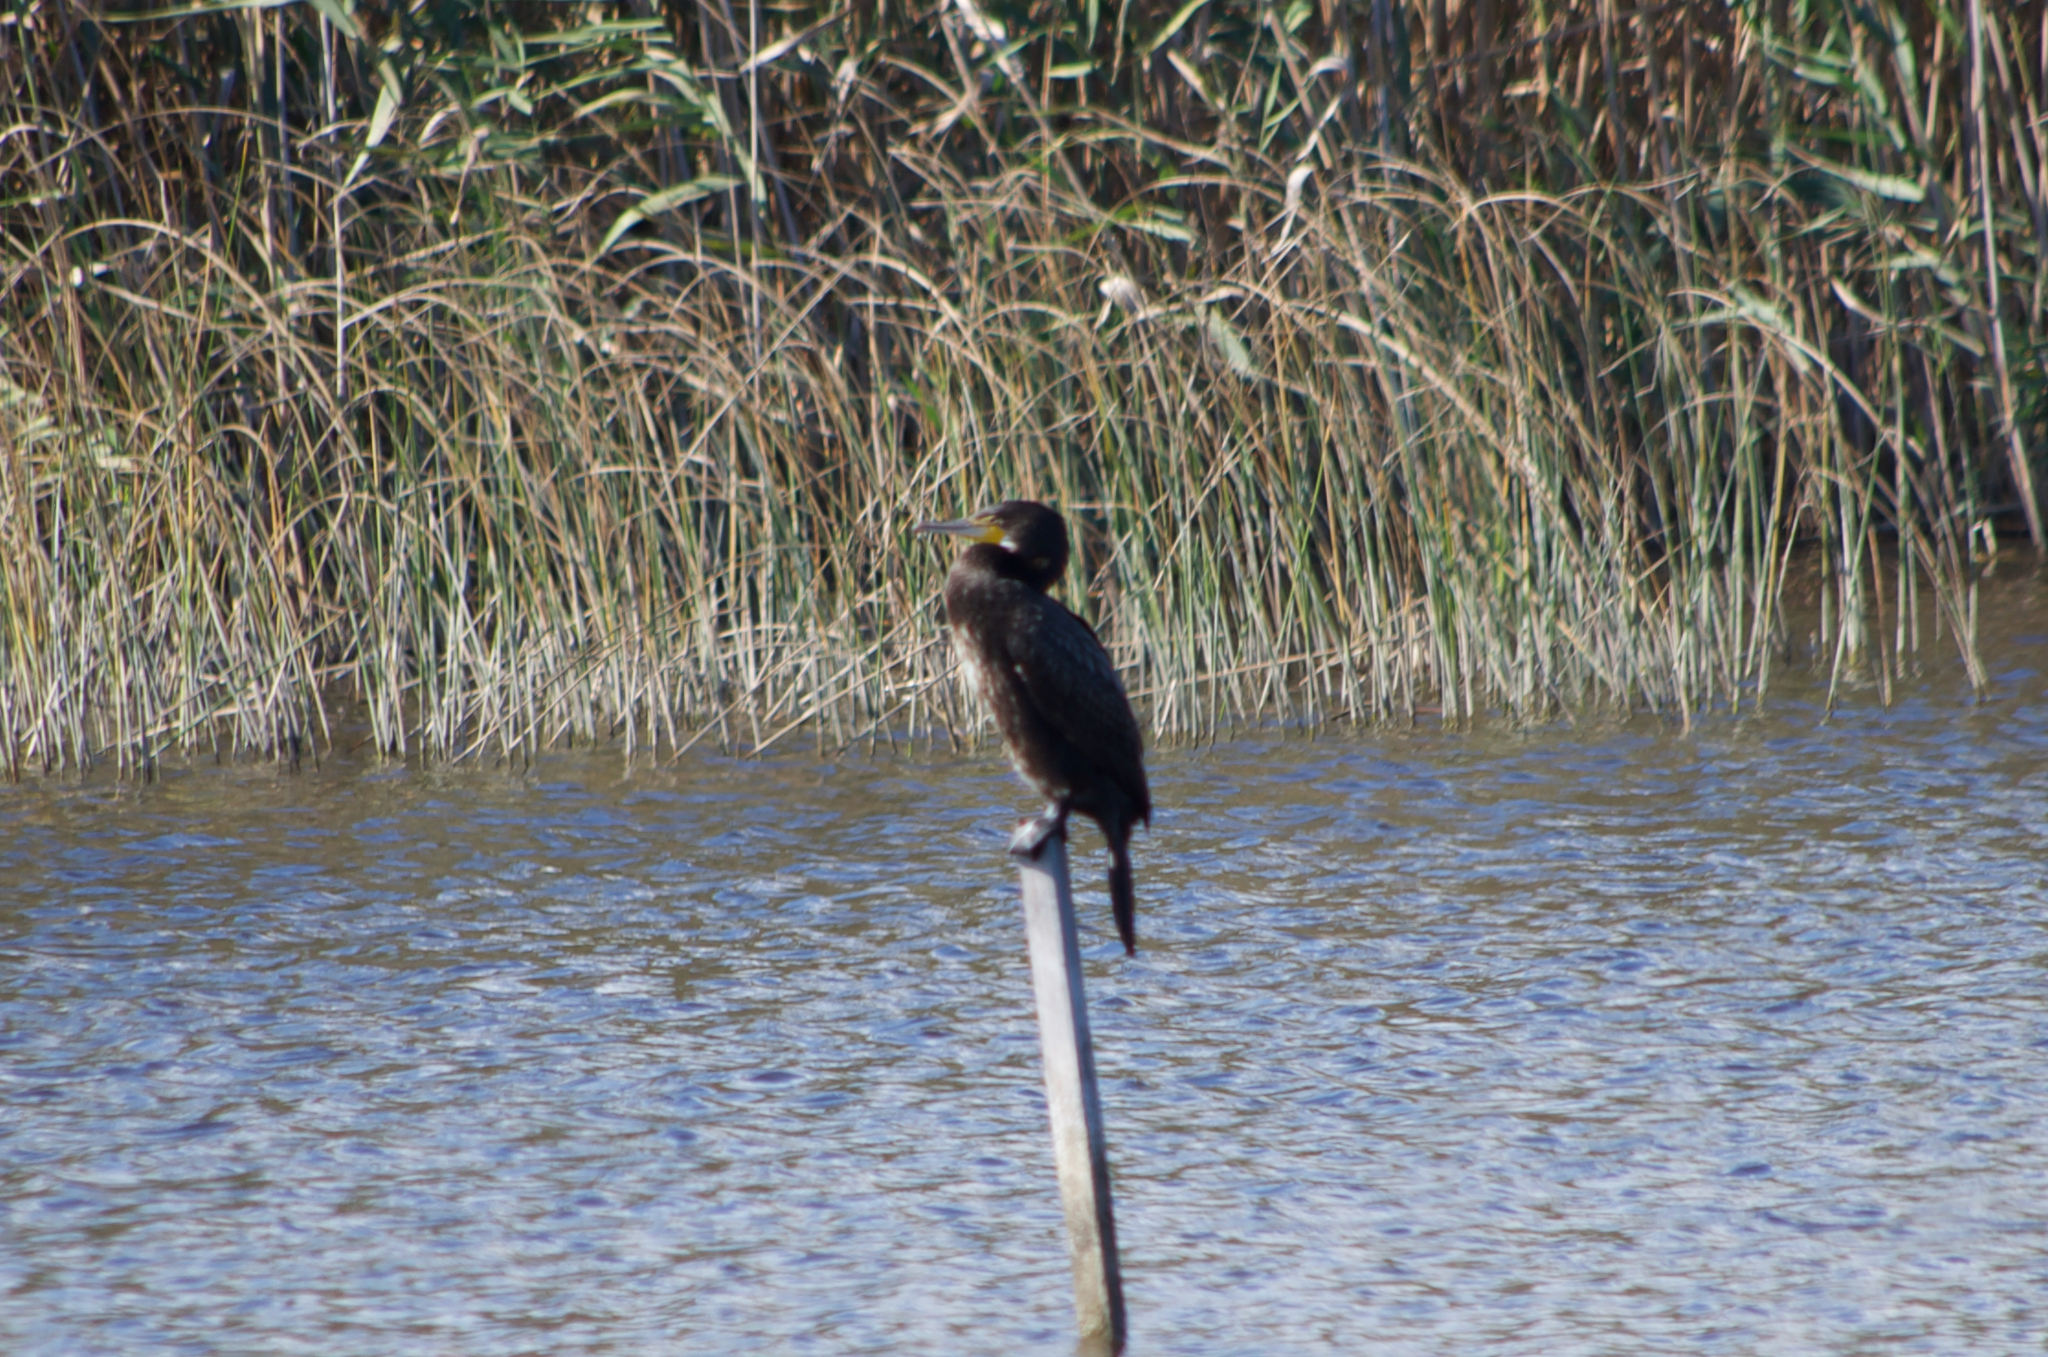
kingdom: Animalia
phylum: Chordata
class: Aves
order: Suliformes
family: Phalacrocoracidae
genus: Phalacrocorax
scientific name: Phalacrocorax carbo
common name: Great cormorant
